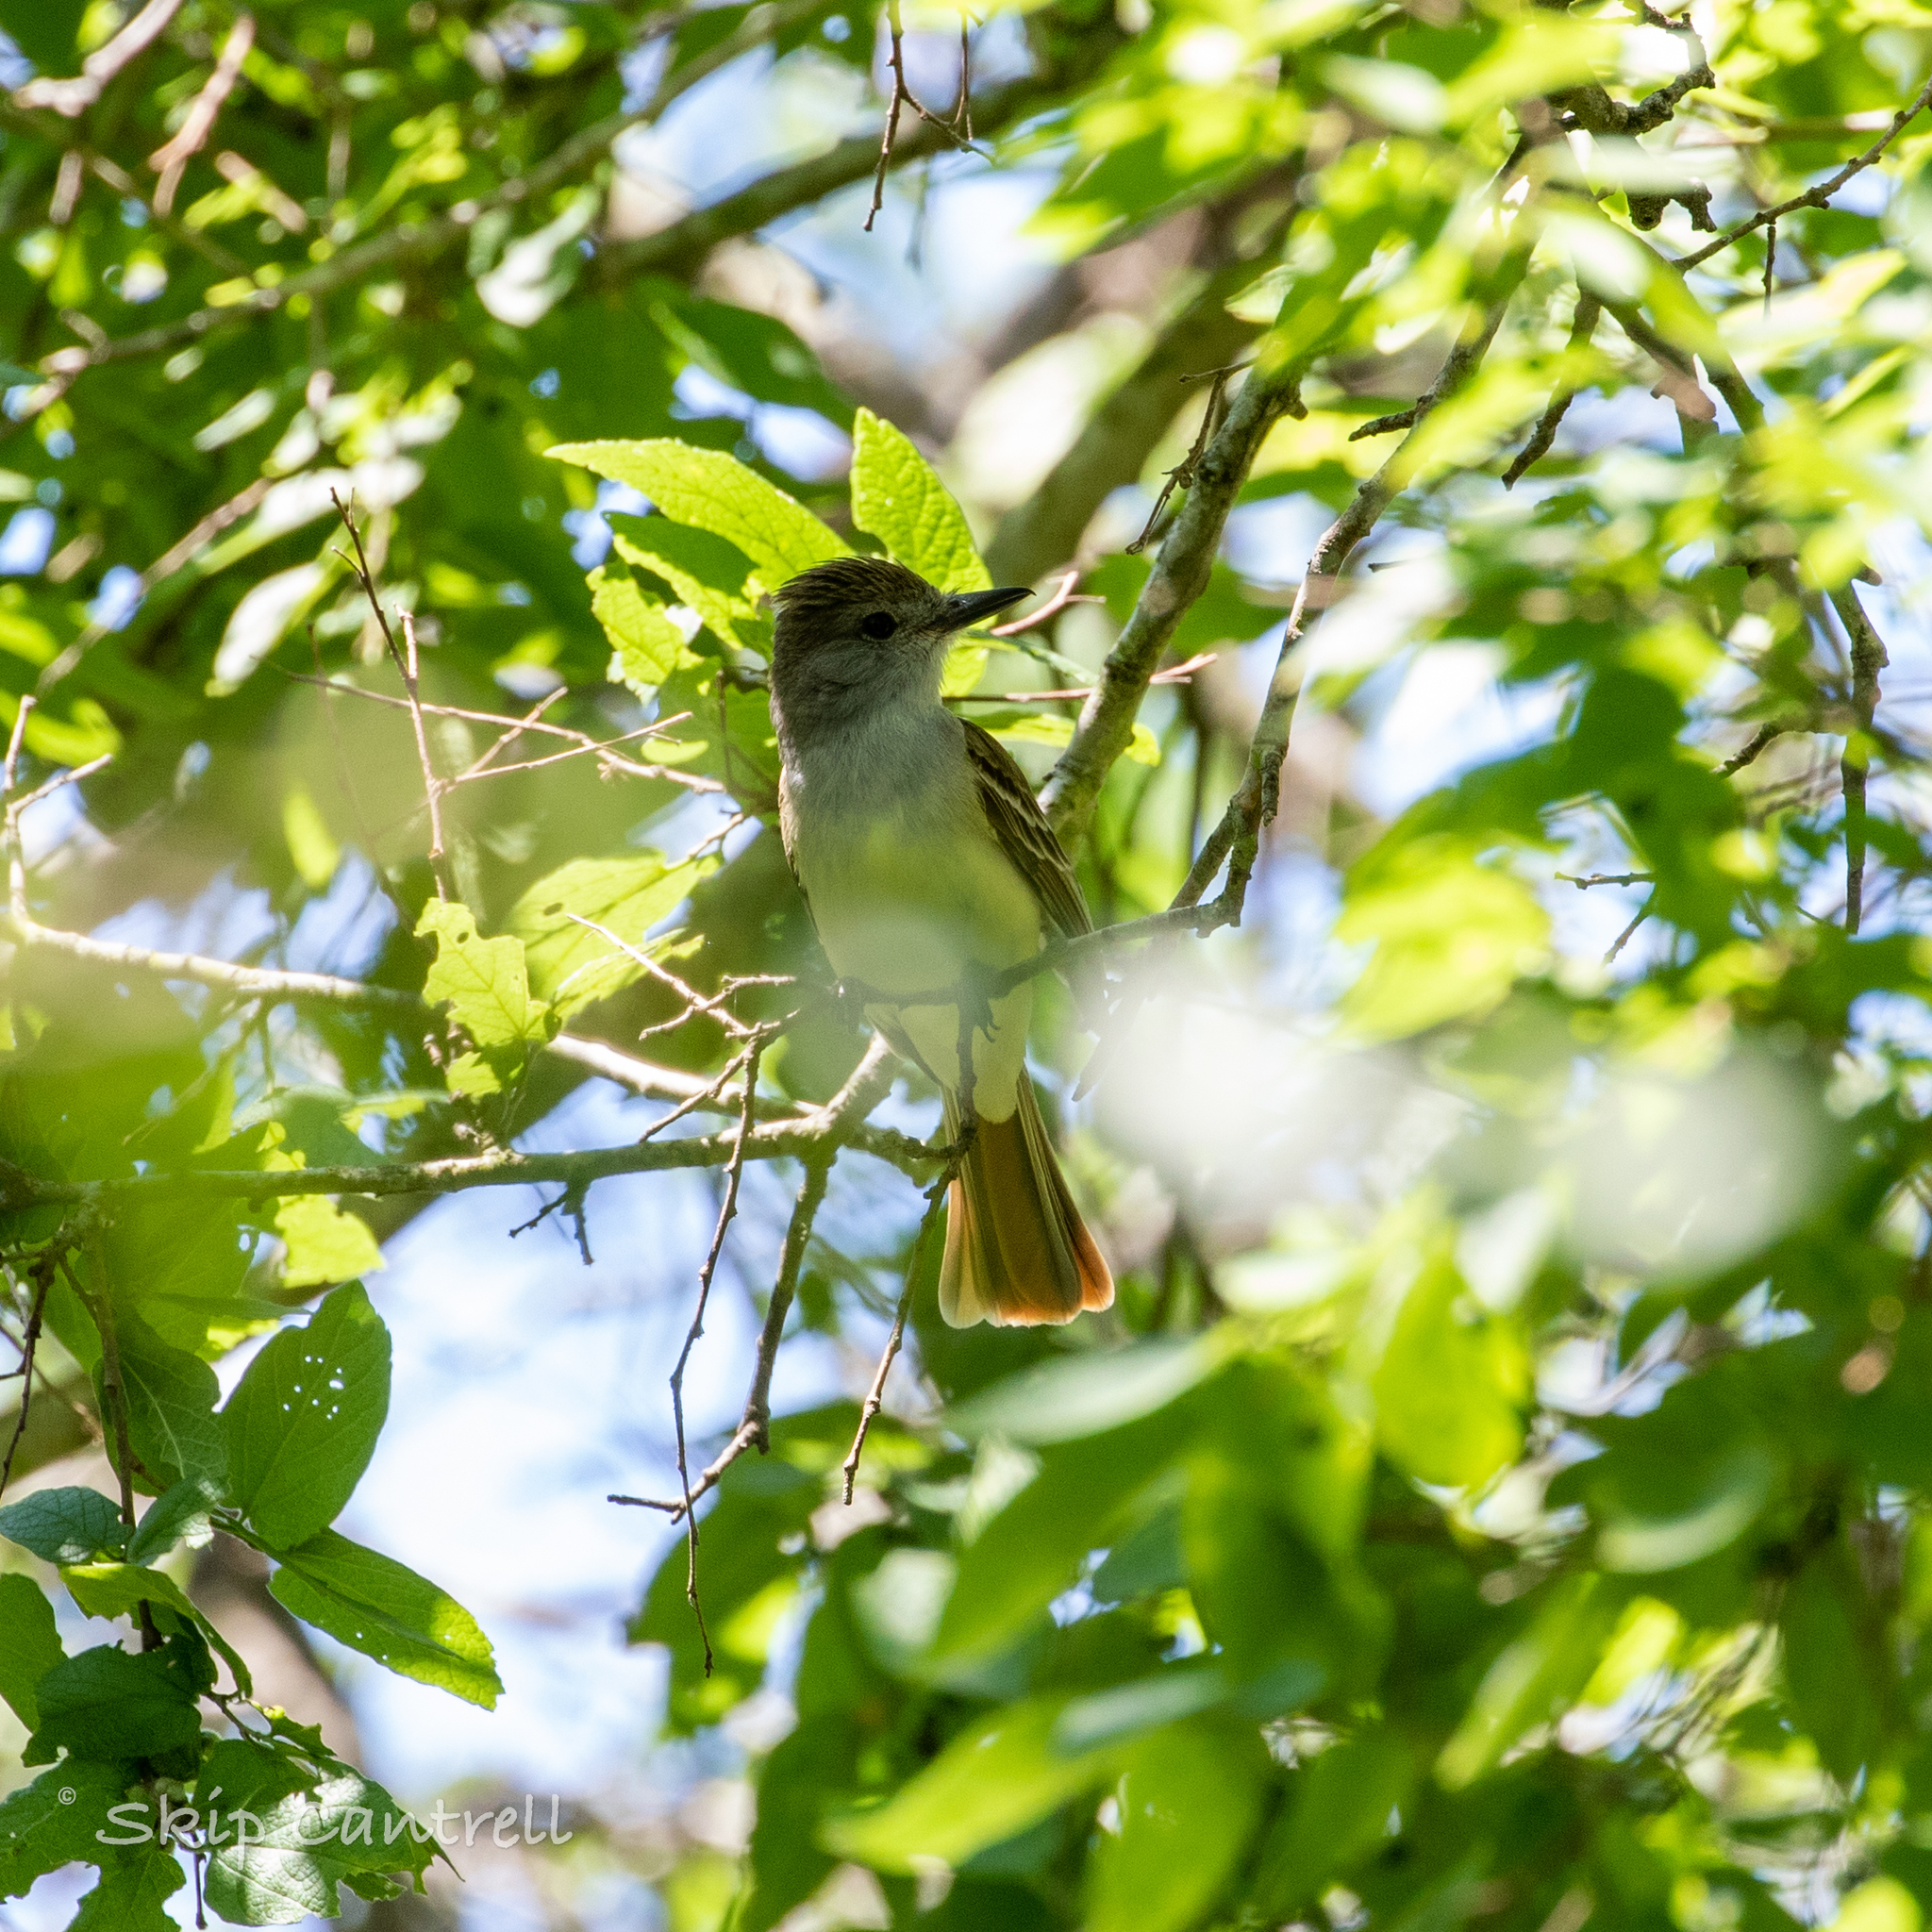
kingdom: Animalia
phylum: Chordata
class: Aves
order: Passeriformes
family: Tyrannidae
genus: Myiarchus
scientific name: Myiarchus tyrannulus
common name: Brown-crested flycatcher
